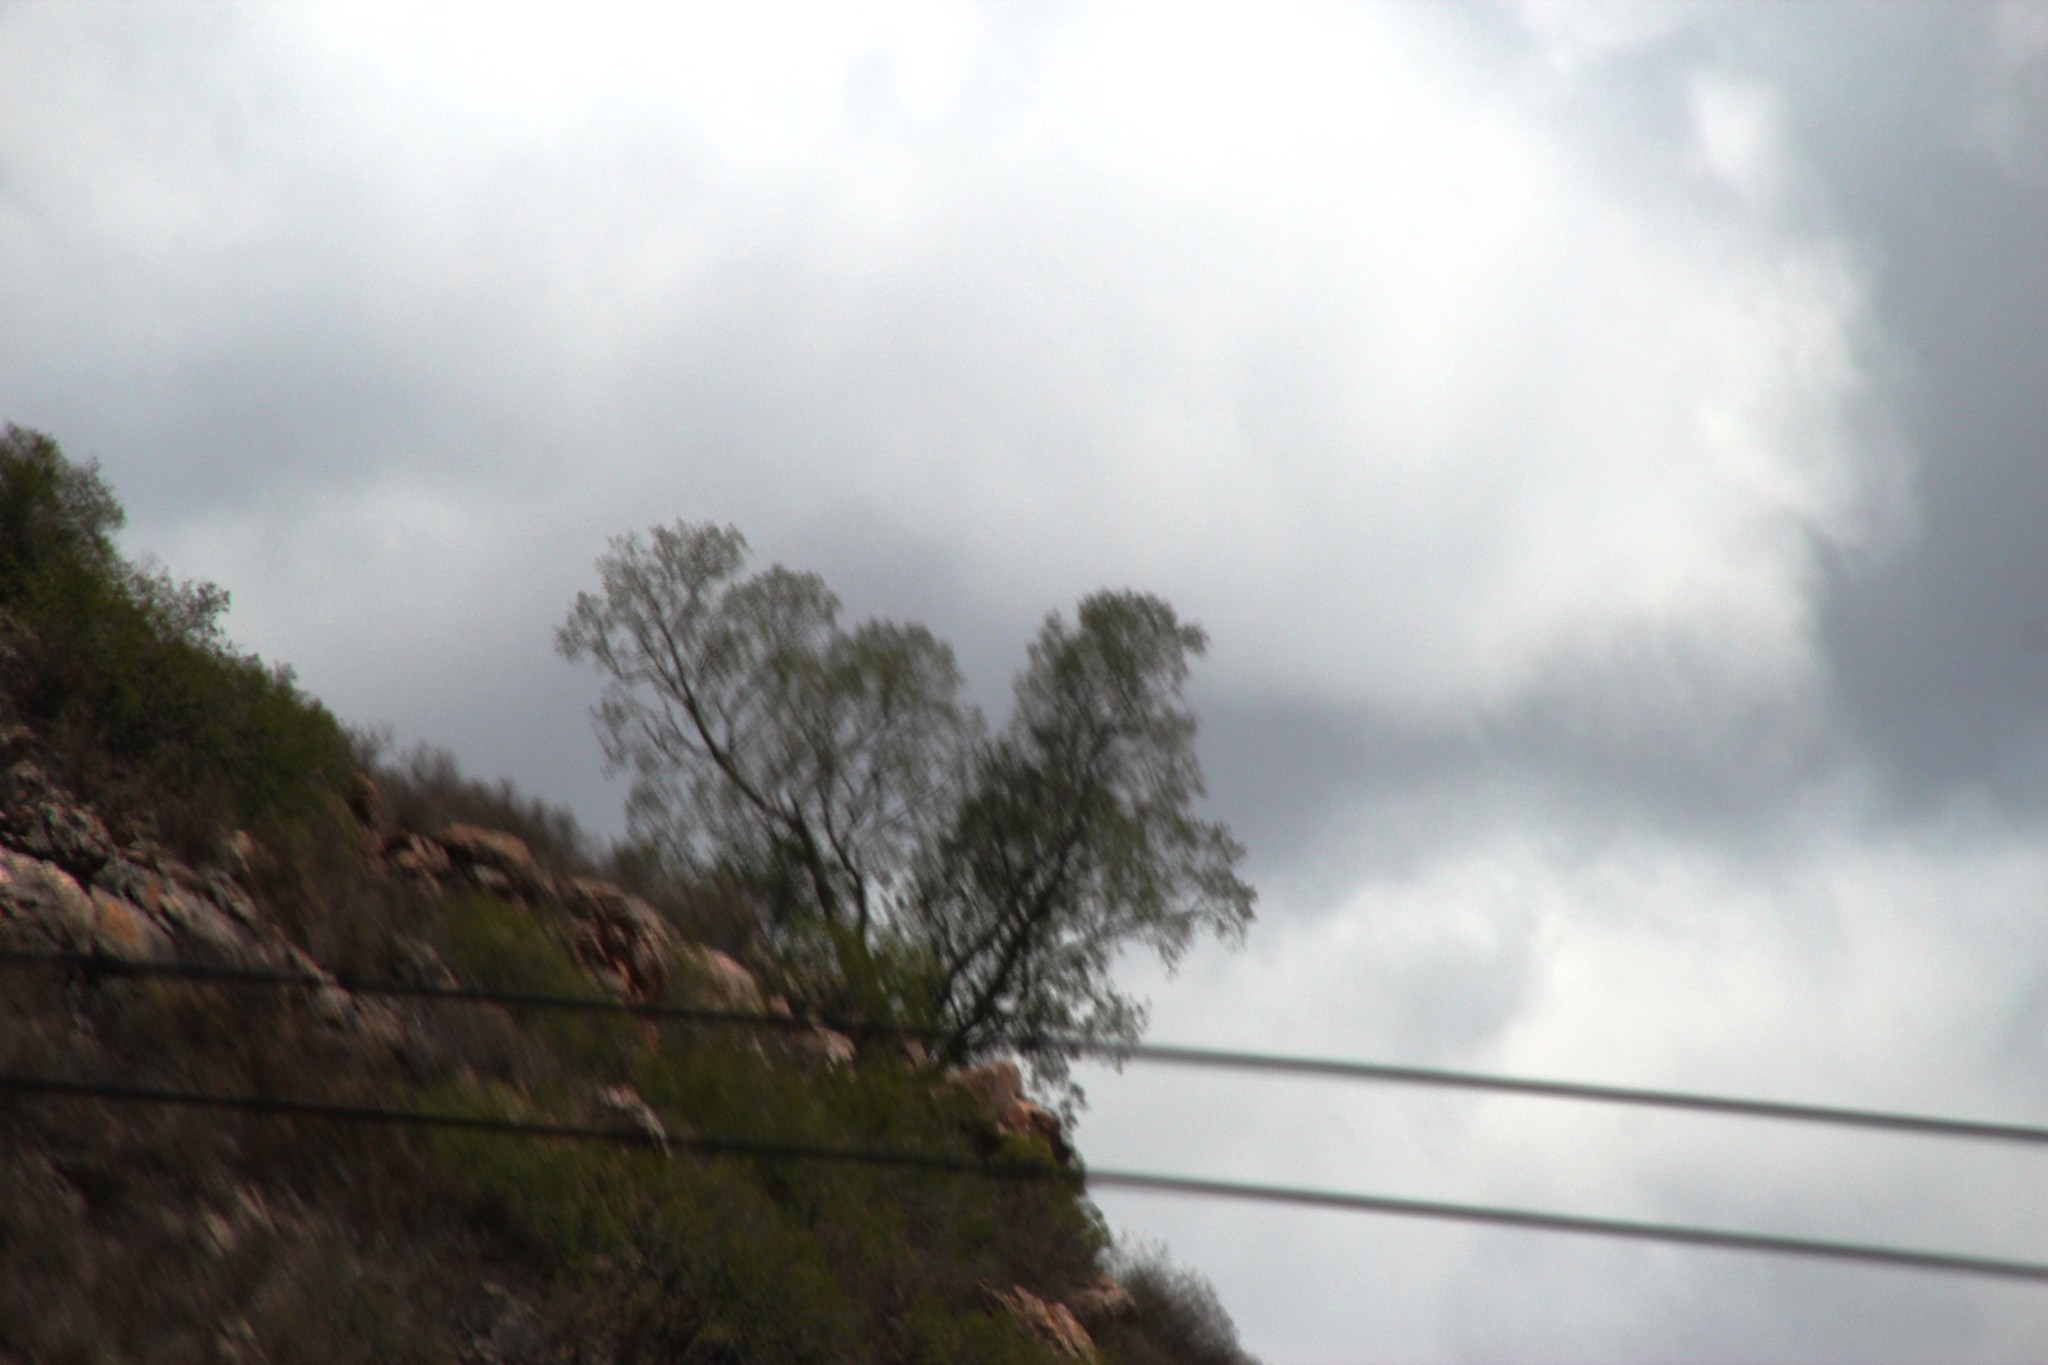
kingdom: Plantae
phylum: Tracheophyta
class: Magnoliopsida
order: Rosales
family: Moraceae
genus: Ficus
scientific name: Ficus cordata
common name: Namaqua rock fig
